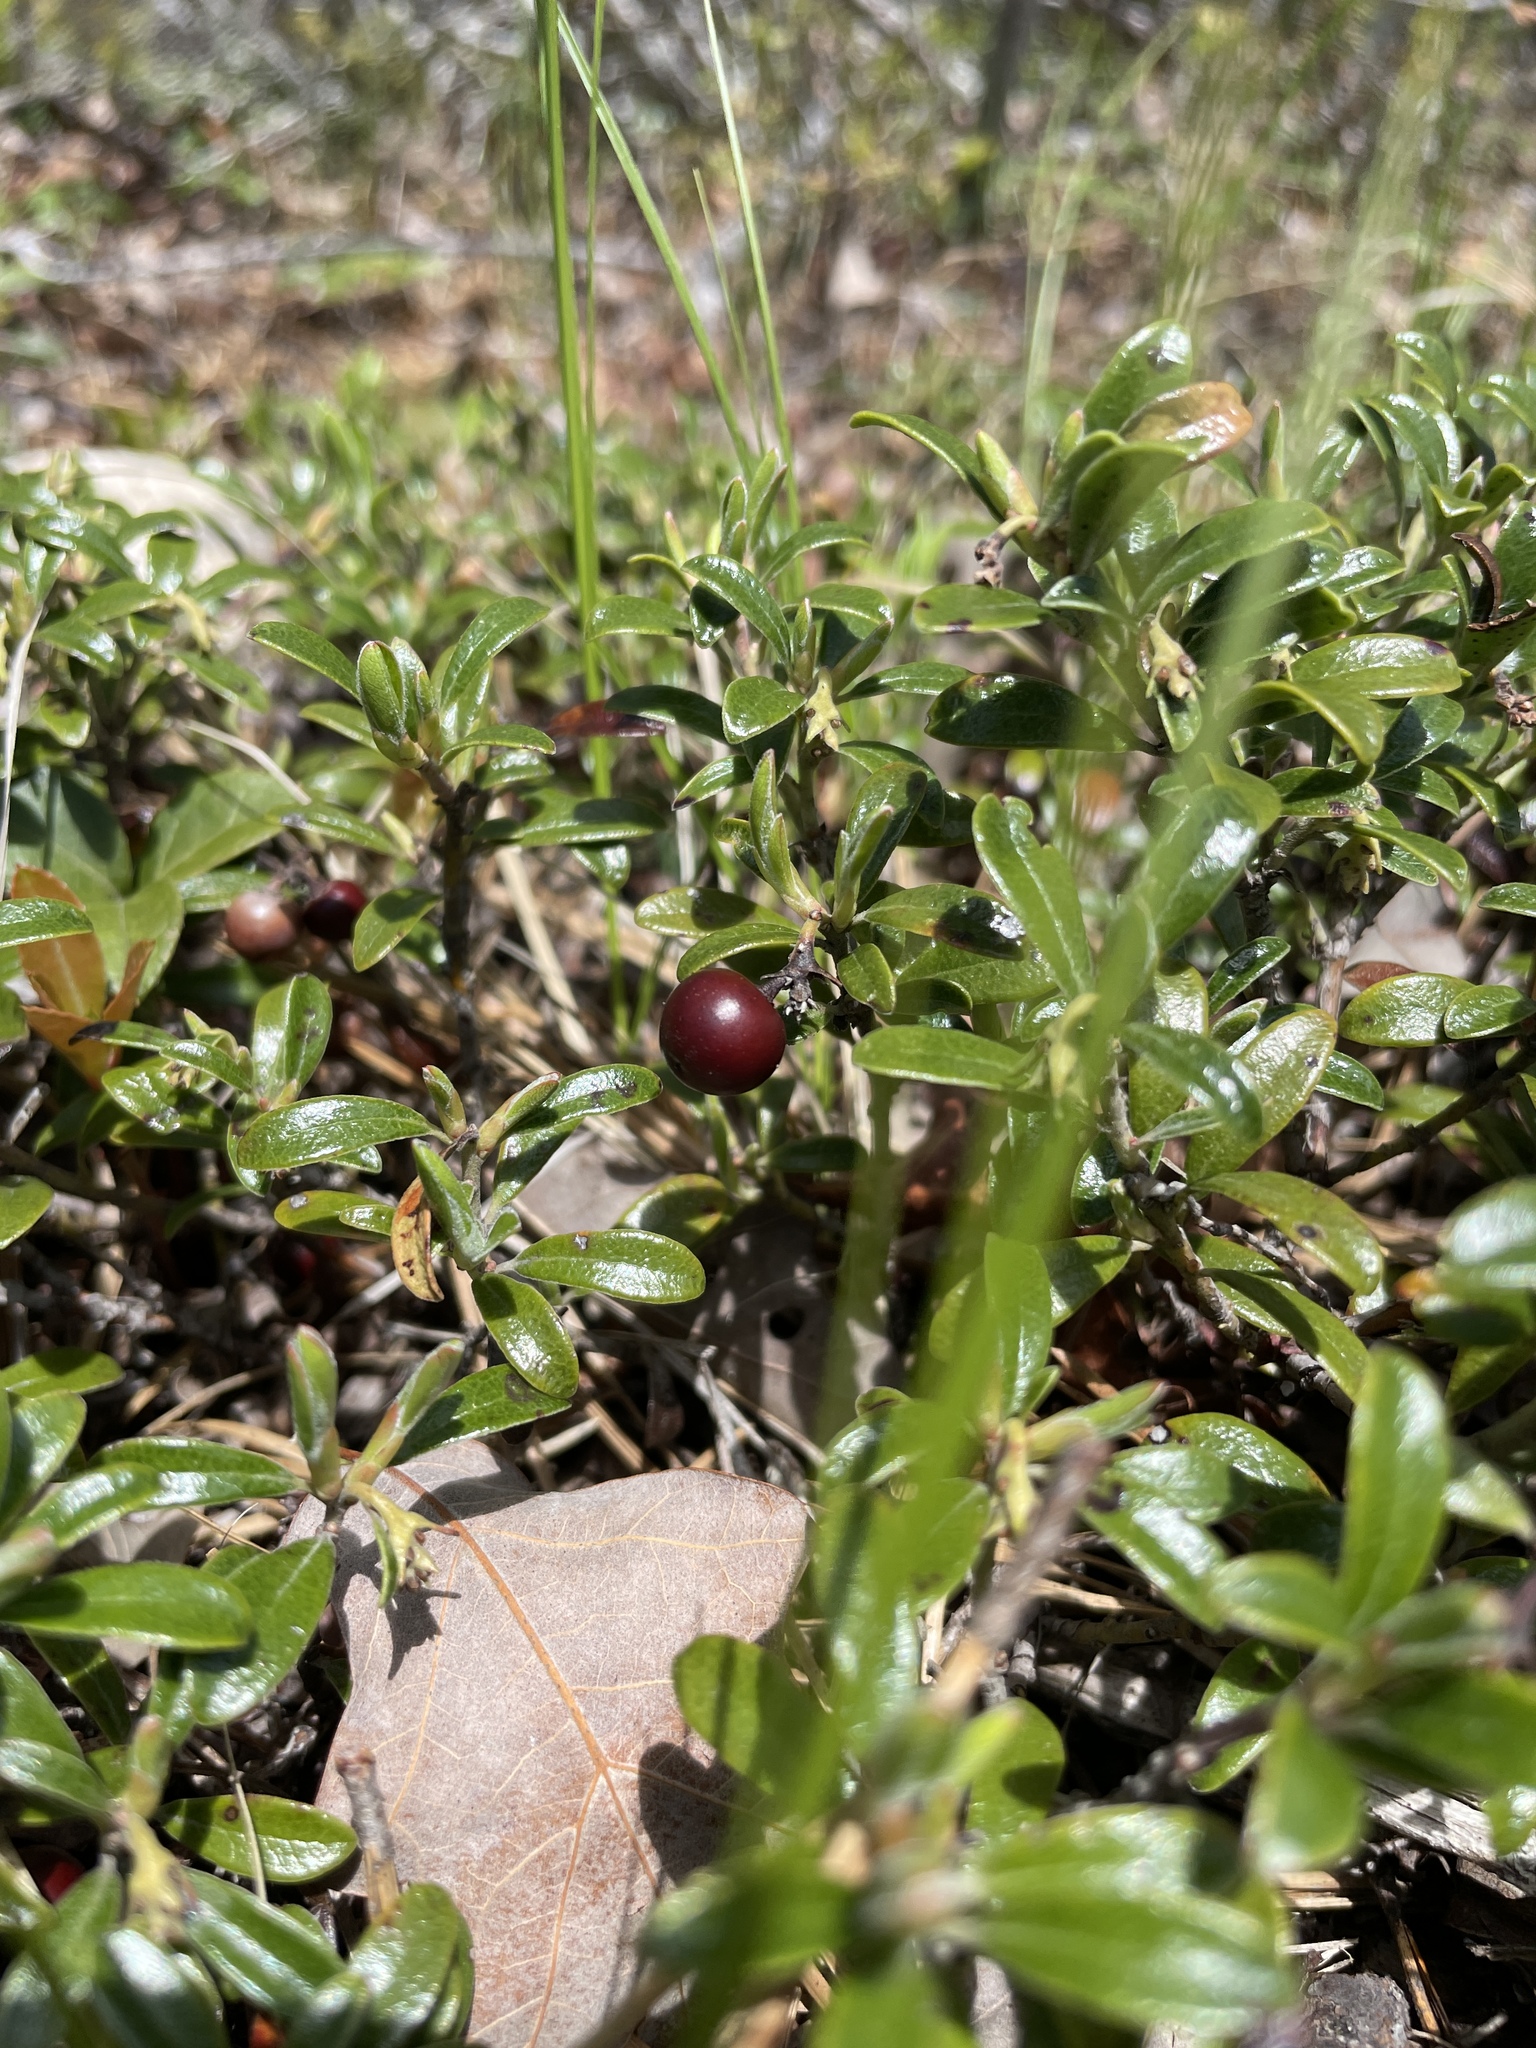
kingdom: Plantae
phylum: Tracheophyta
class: Magnoliopsida
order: Ericales
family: Ericaceae
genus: Arctostaphylos
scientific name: Arctostaphylos uva-ursi
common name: Bearberry
